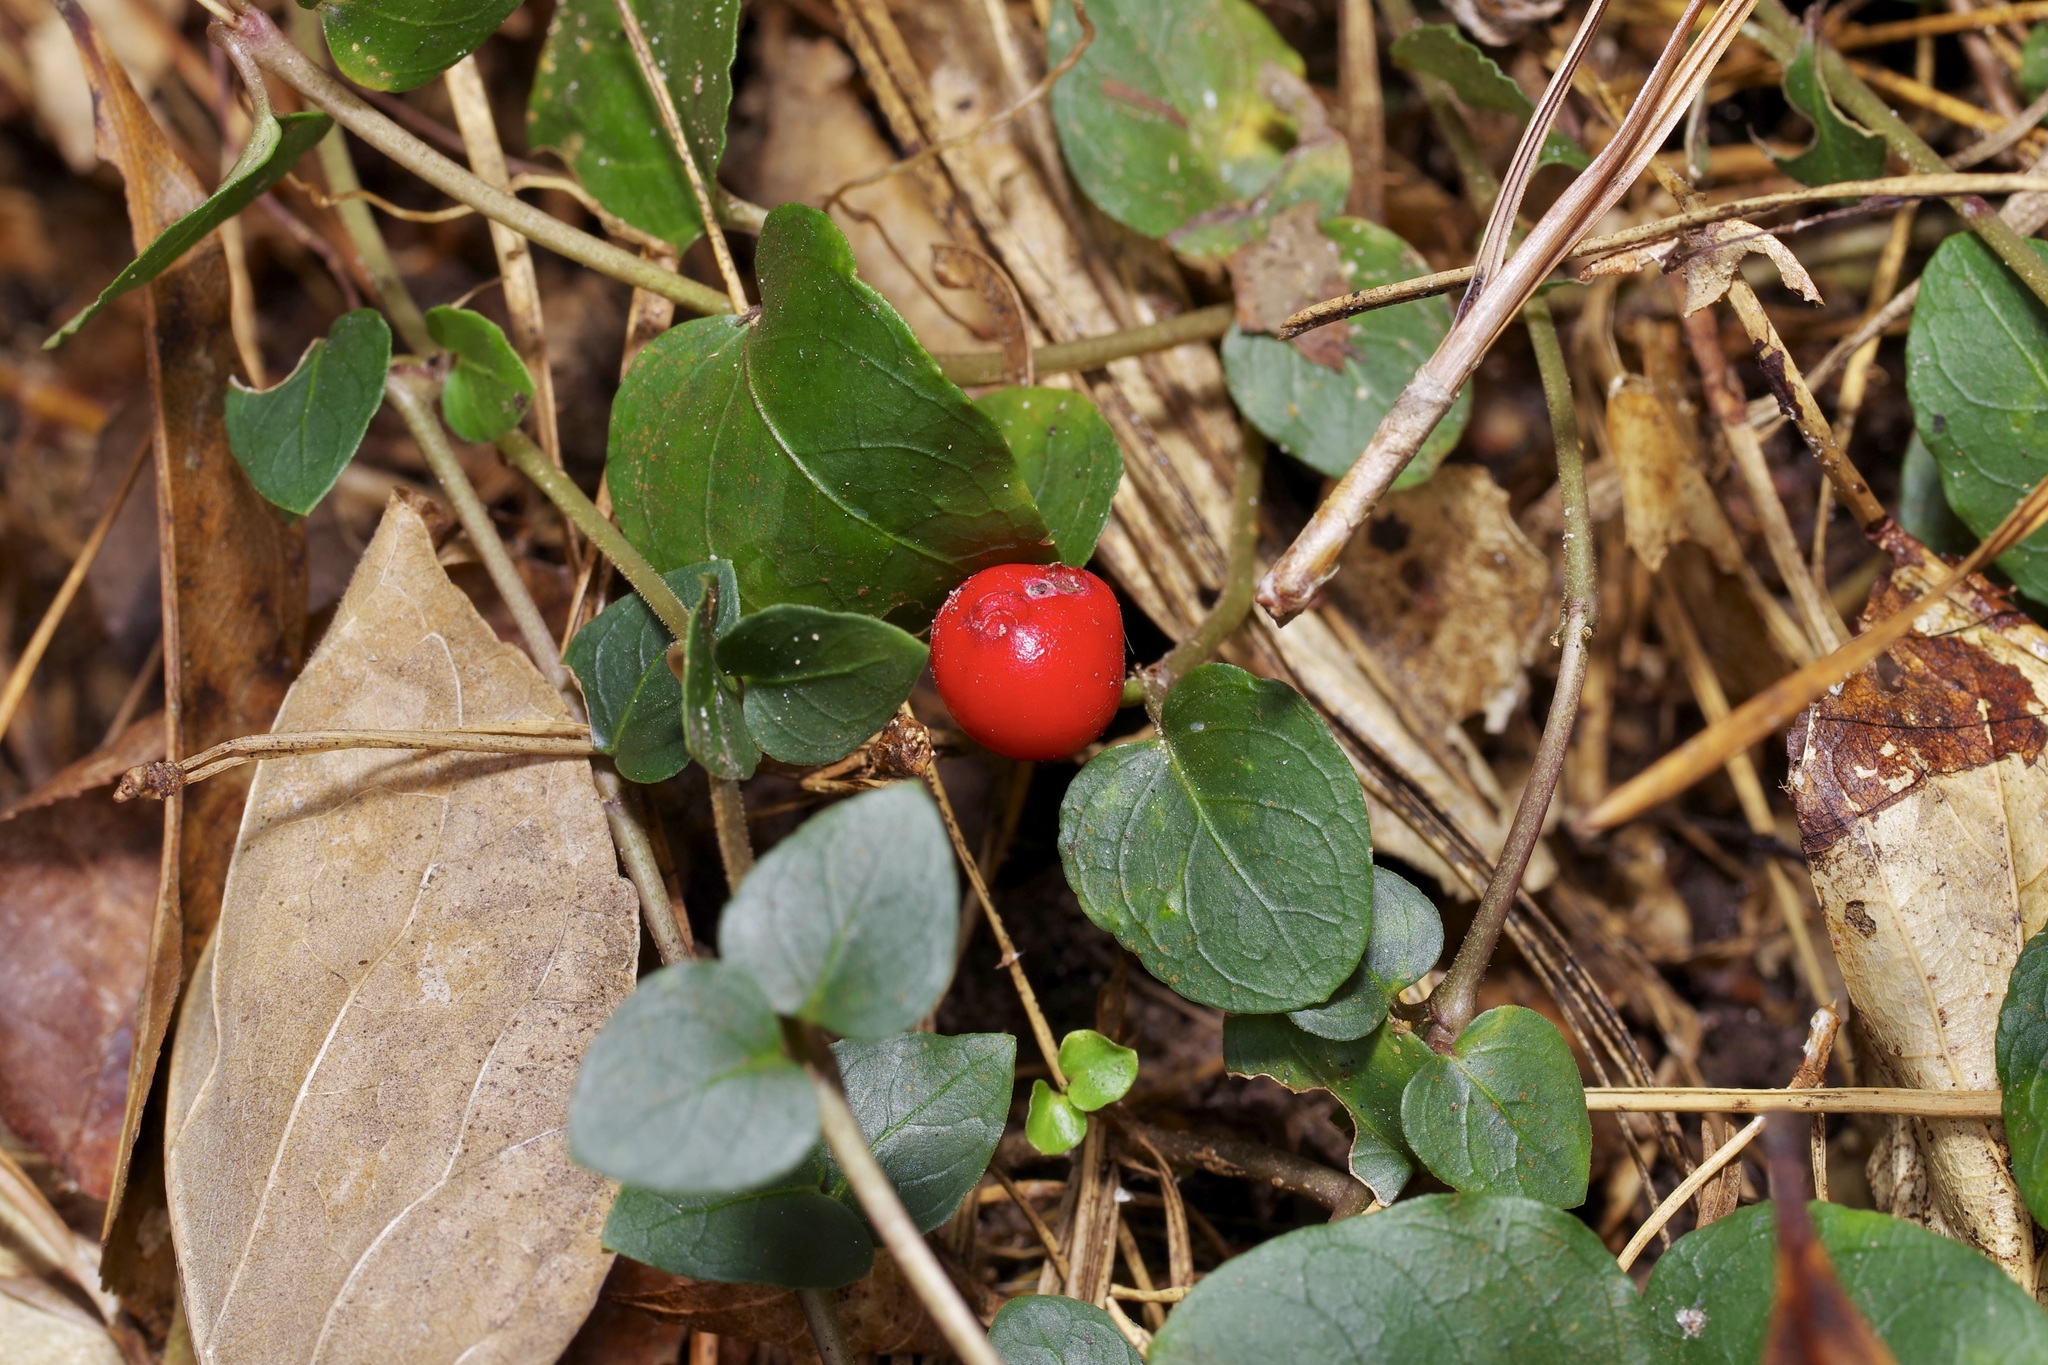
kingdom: Plantae
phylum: Tracheophyta
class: Magnoliopsida
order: Gentianales
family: Rubiaceae
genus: Mitchella
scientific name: Mitchella repens
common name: Partridge-berry
